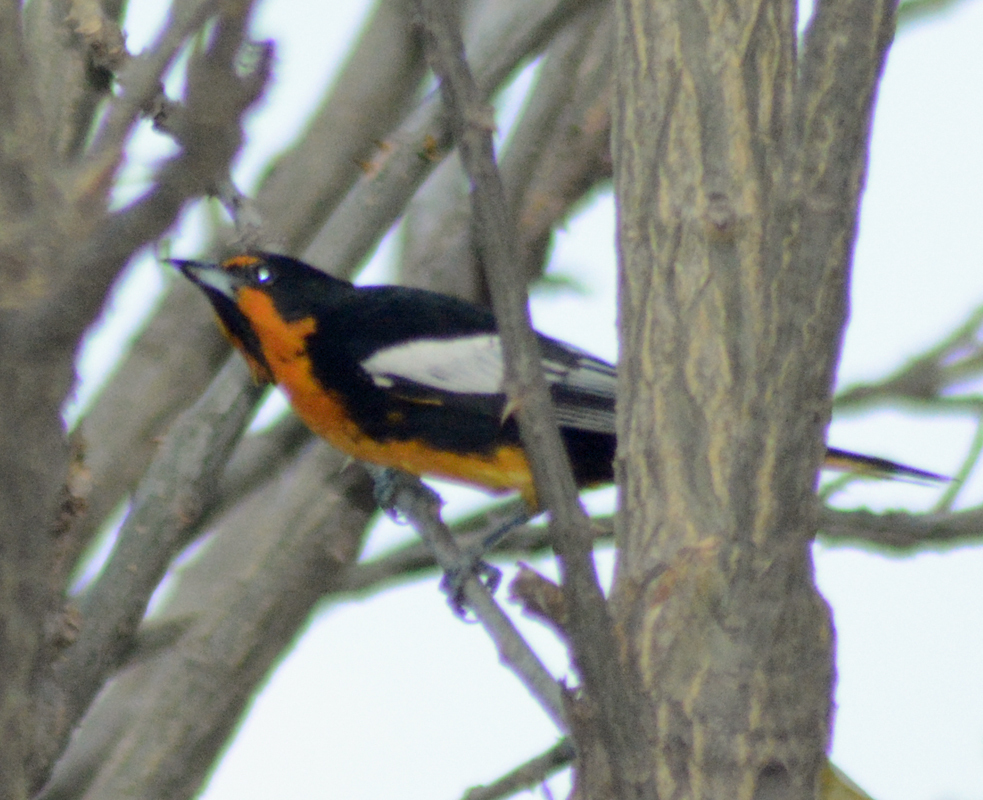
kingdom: Animalia
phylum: Chordata
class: Aves
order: Passeriformes
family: Icteridae
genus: Icterus
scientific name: Icterus abeillei
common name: Black-backed oriole
